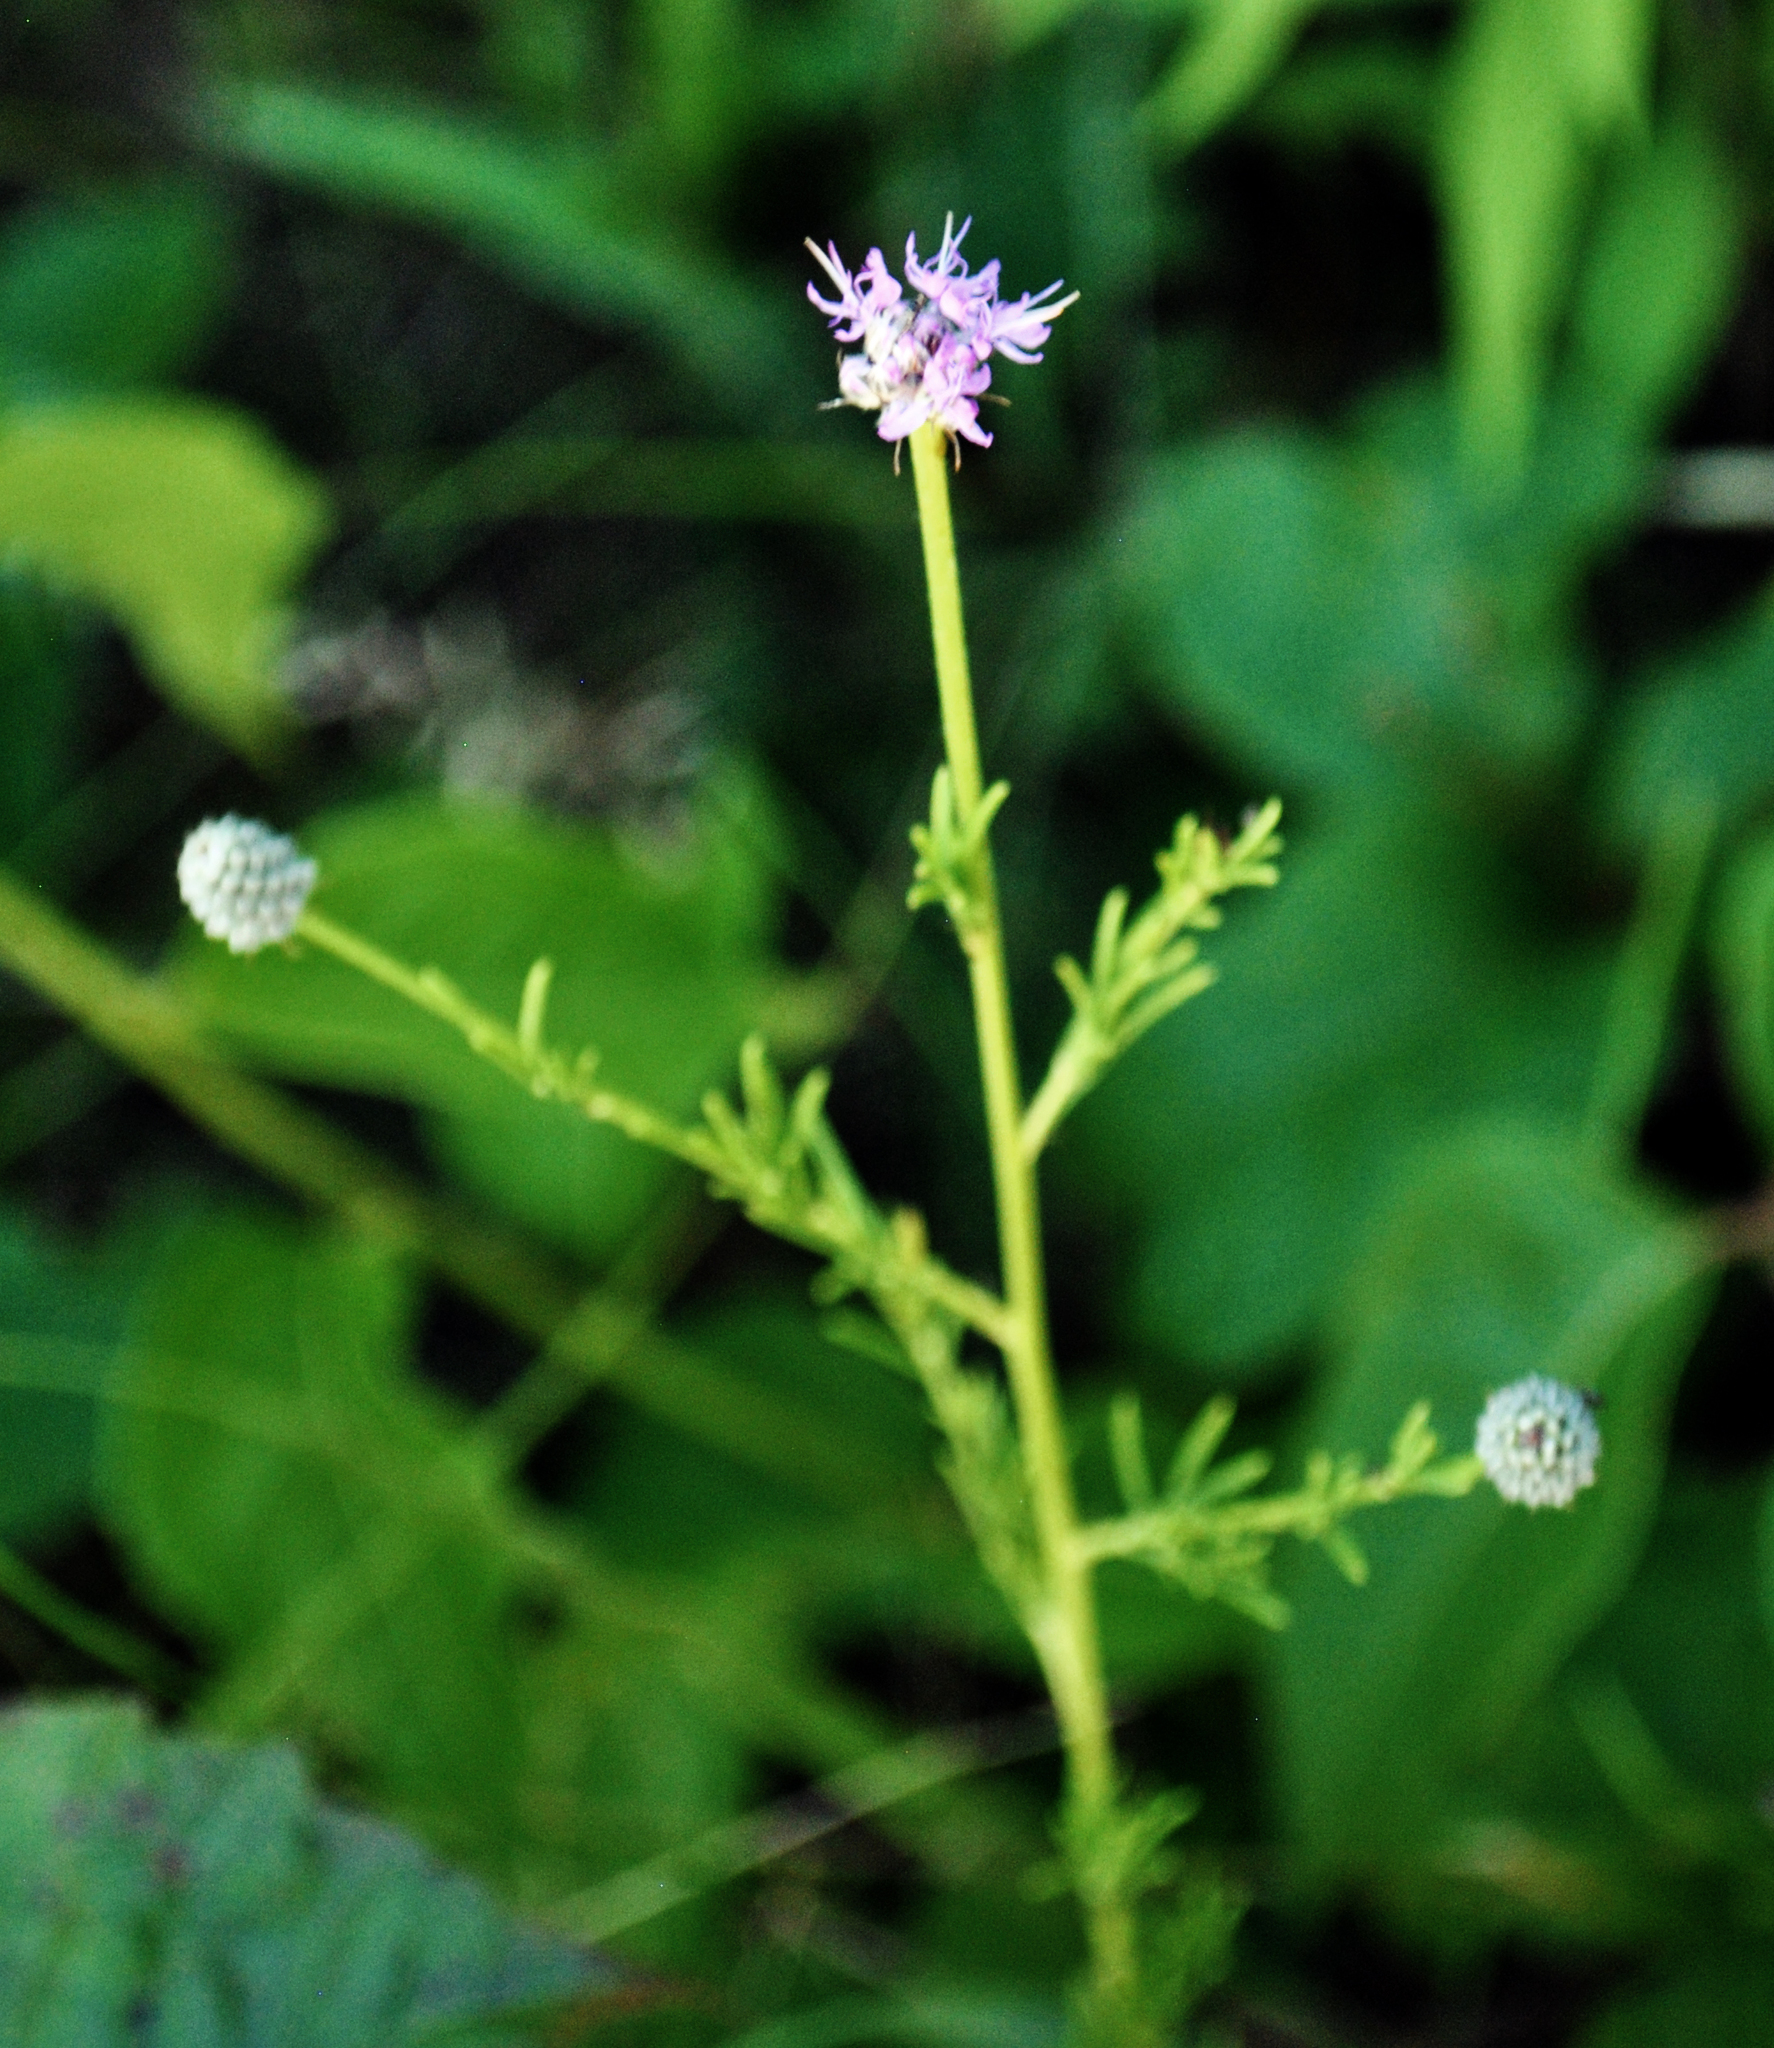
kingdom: Plantae
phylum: Tracheophyta
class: Magnoliopsida
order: Fabales
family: Fabaceae
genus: Dalea
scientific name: Dalea purpurea
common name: Purple prairie-clover
